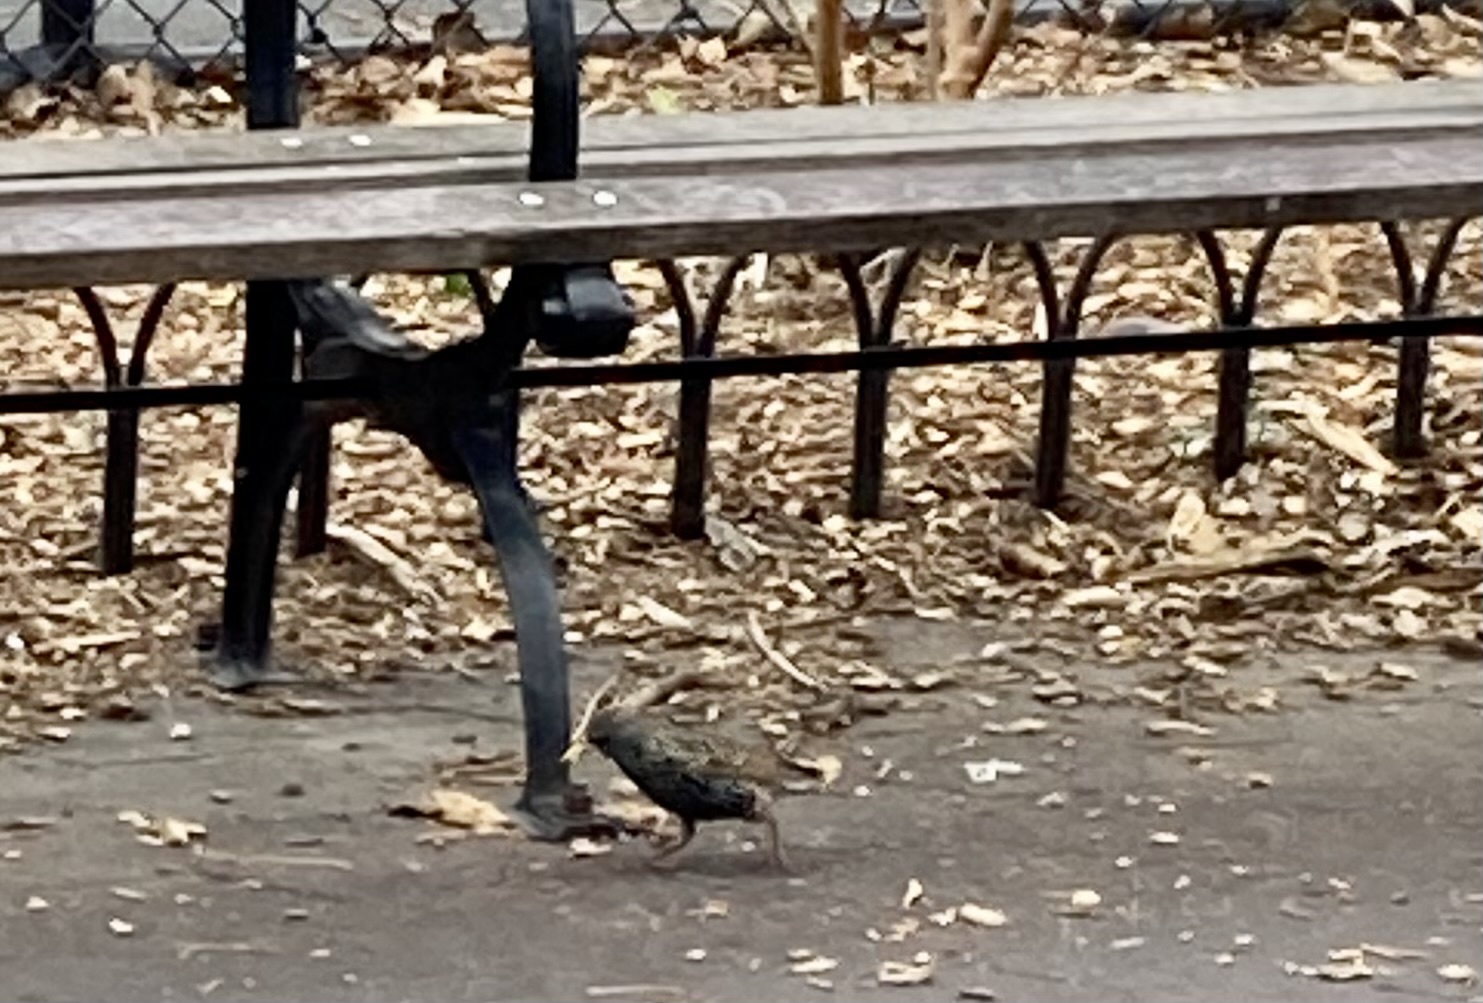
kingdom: Animalia
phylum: Chordata
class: Aves
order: Passeriformes
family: Sturnidae
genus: Sturnus
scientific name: Sturnus vulgaris
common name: Common starling
